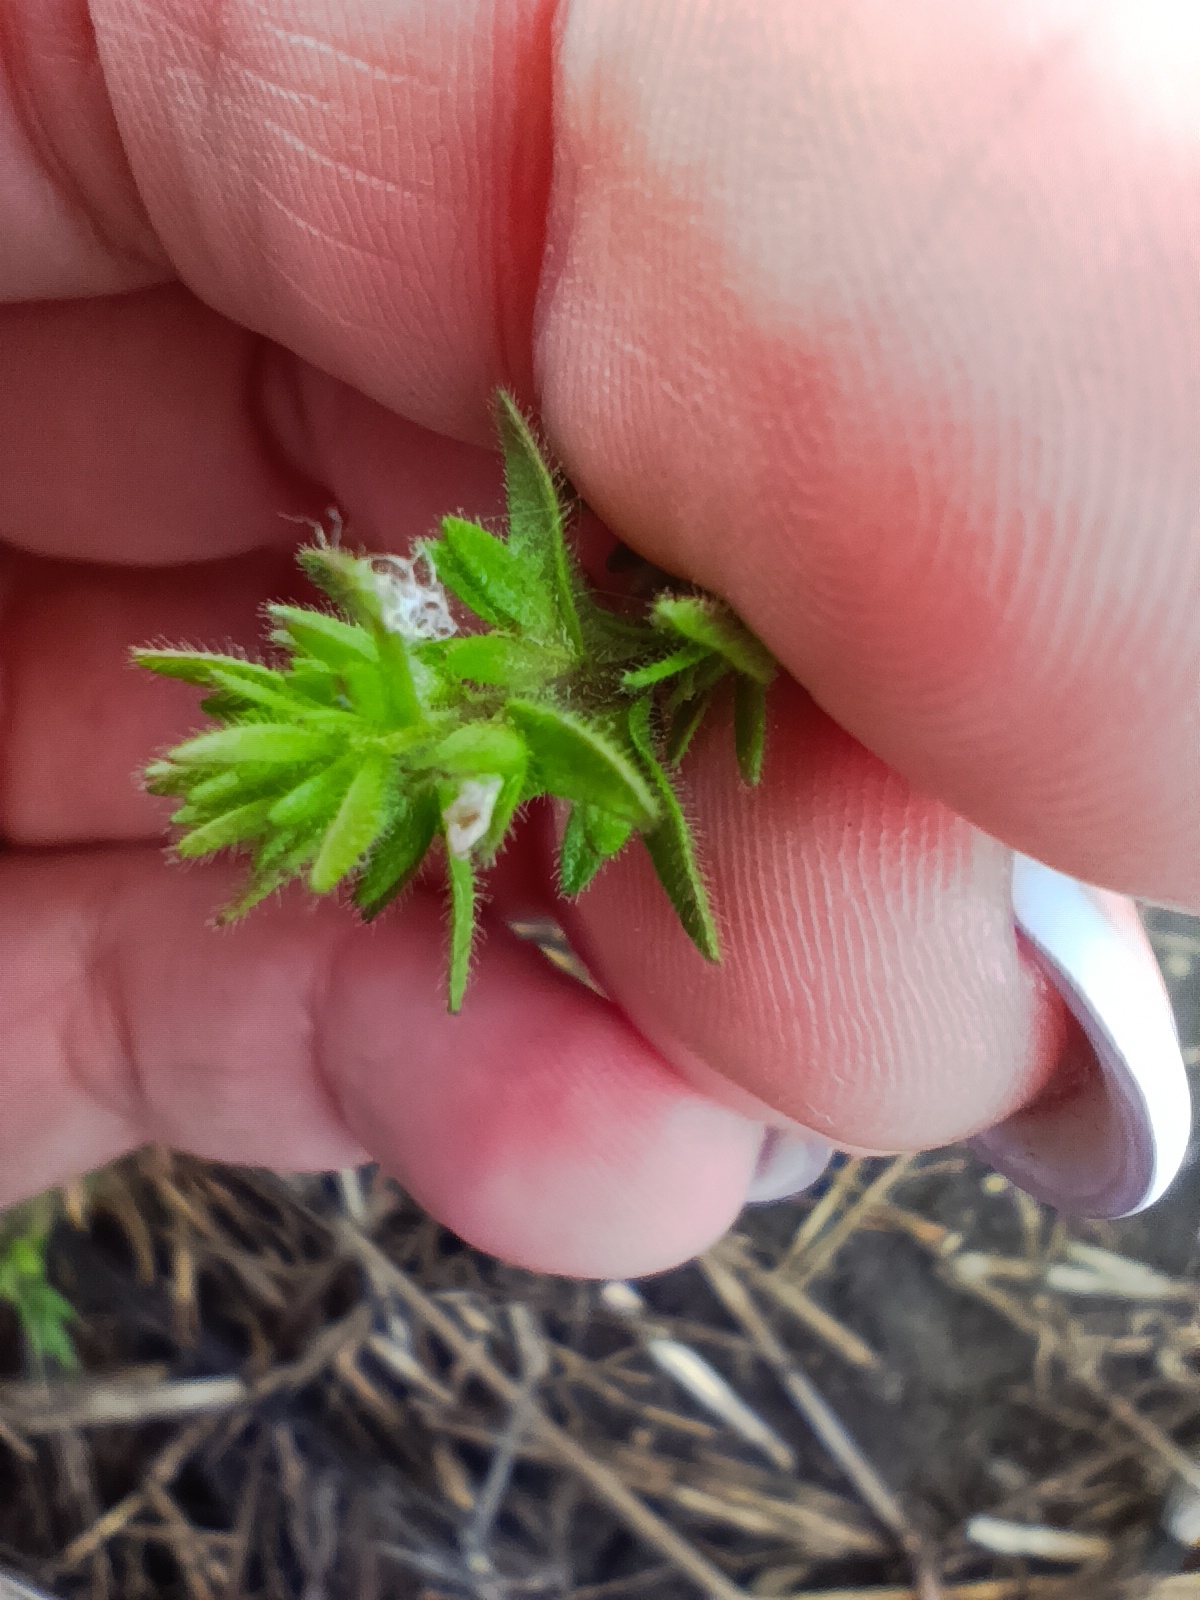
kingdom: Plantae
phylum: Tracheophyta
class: Magnoliopsida
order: Lamiales
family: Plantaginaceae
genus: Veronica
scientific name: Veronica arvensis
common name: Corn speedwell
